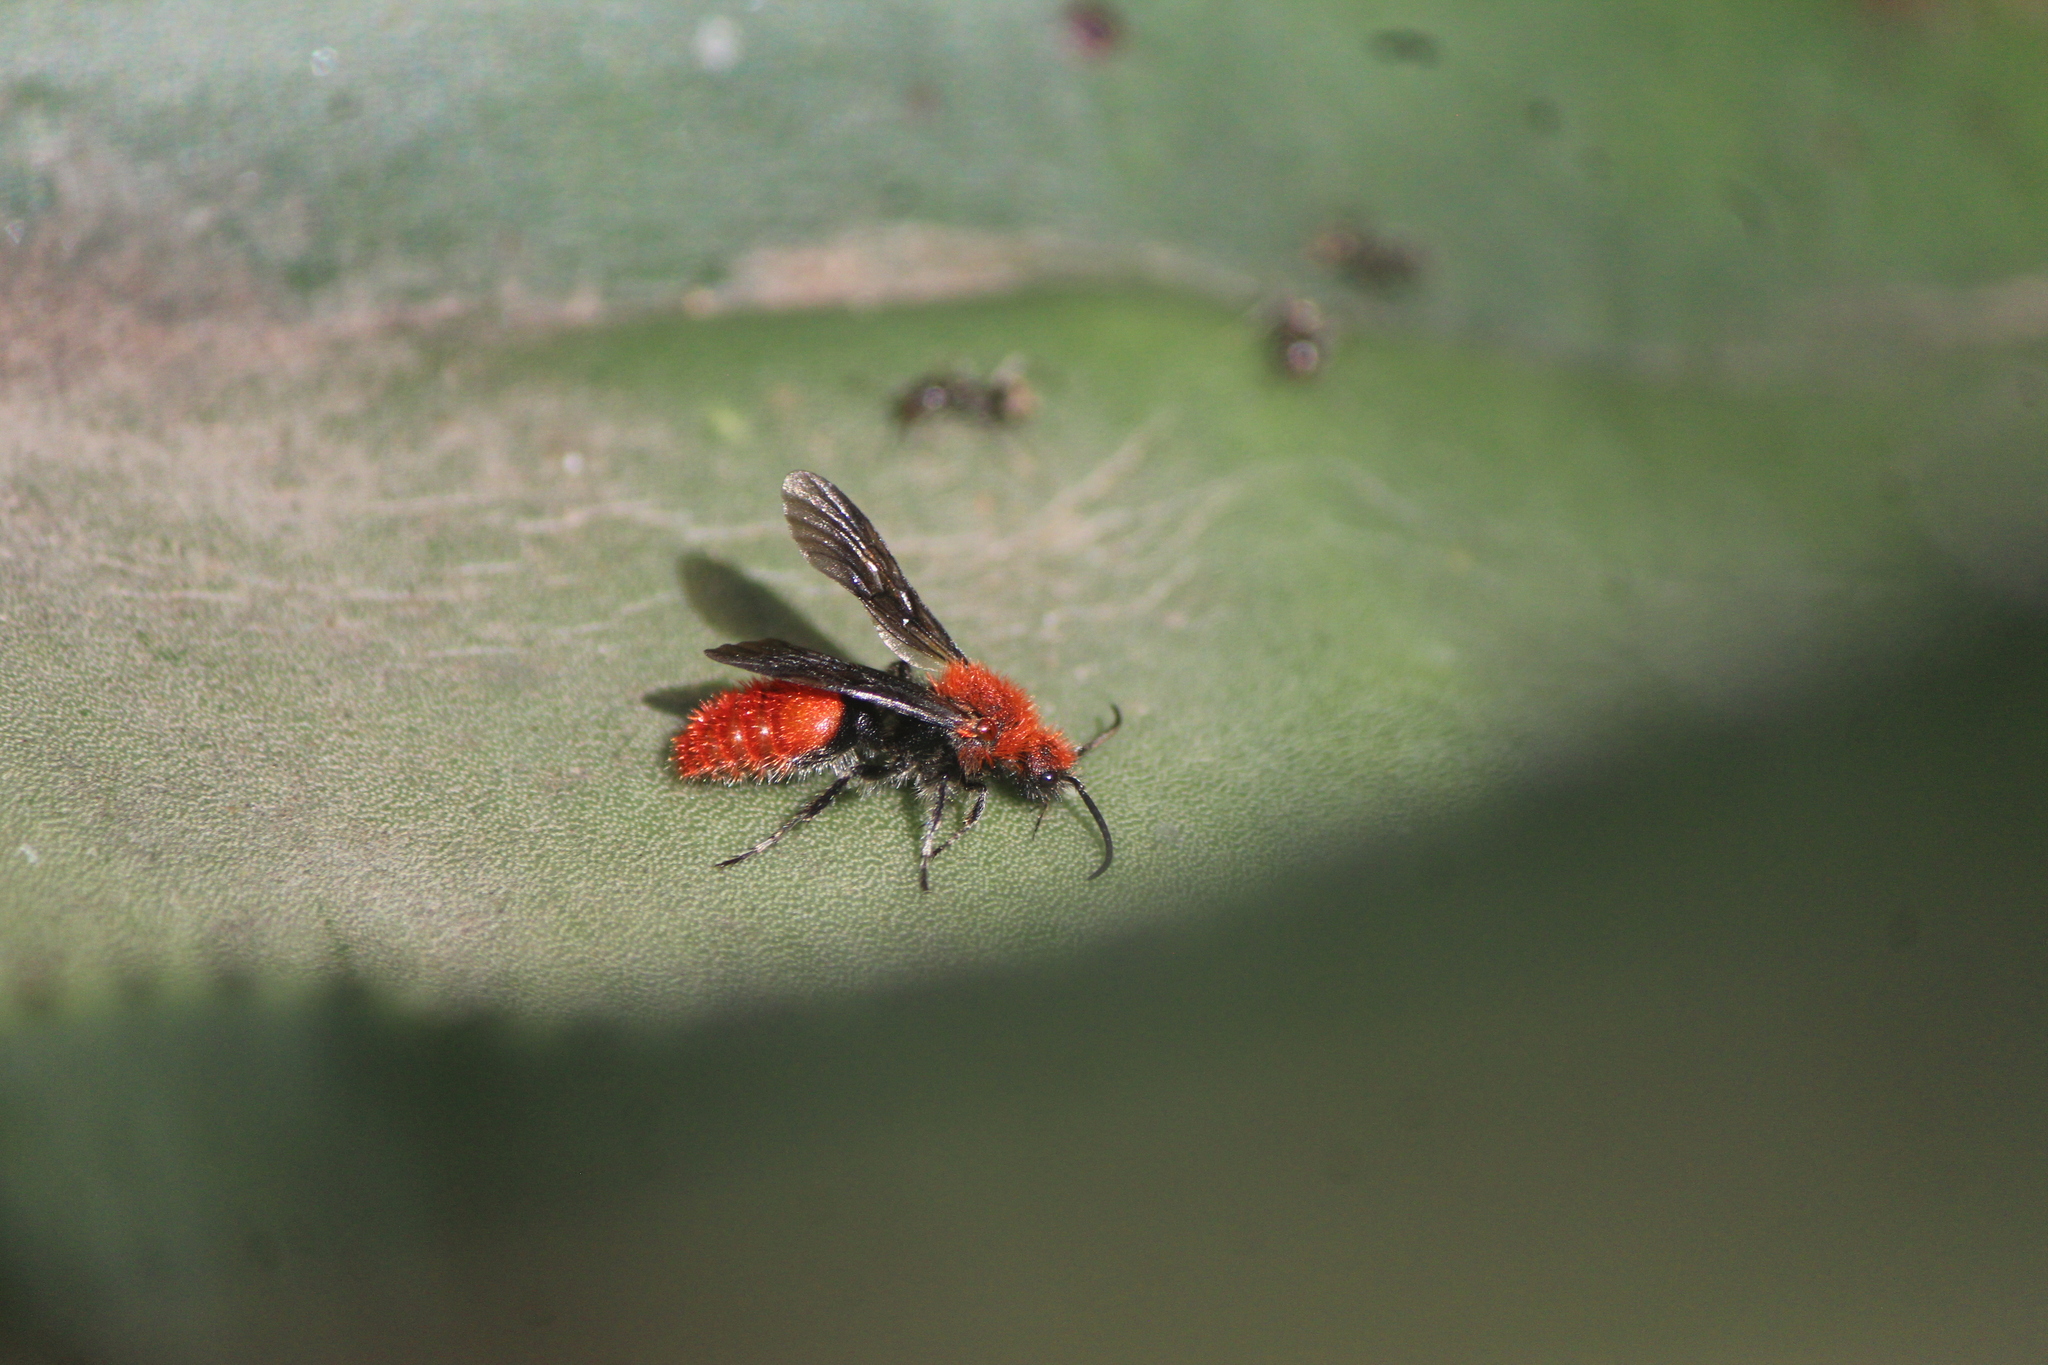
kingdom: Animalia
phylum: Arthropoda
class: Insecta
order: Hymenoptera
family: Mutillidae
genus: Dasymutilla
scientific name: Dasymutilla
